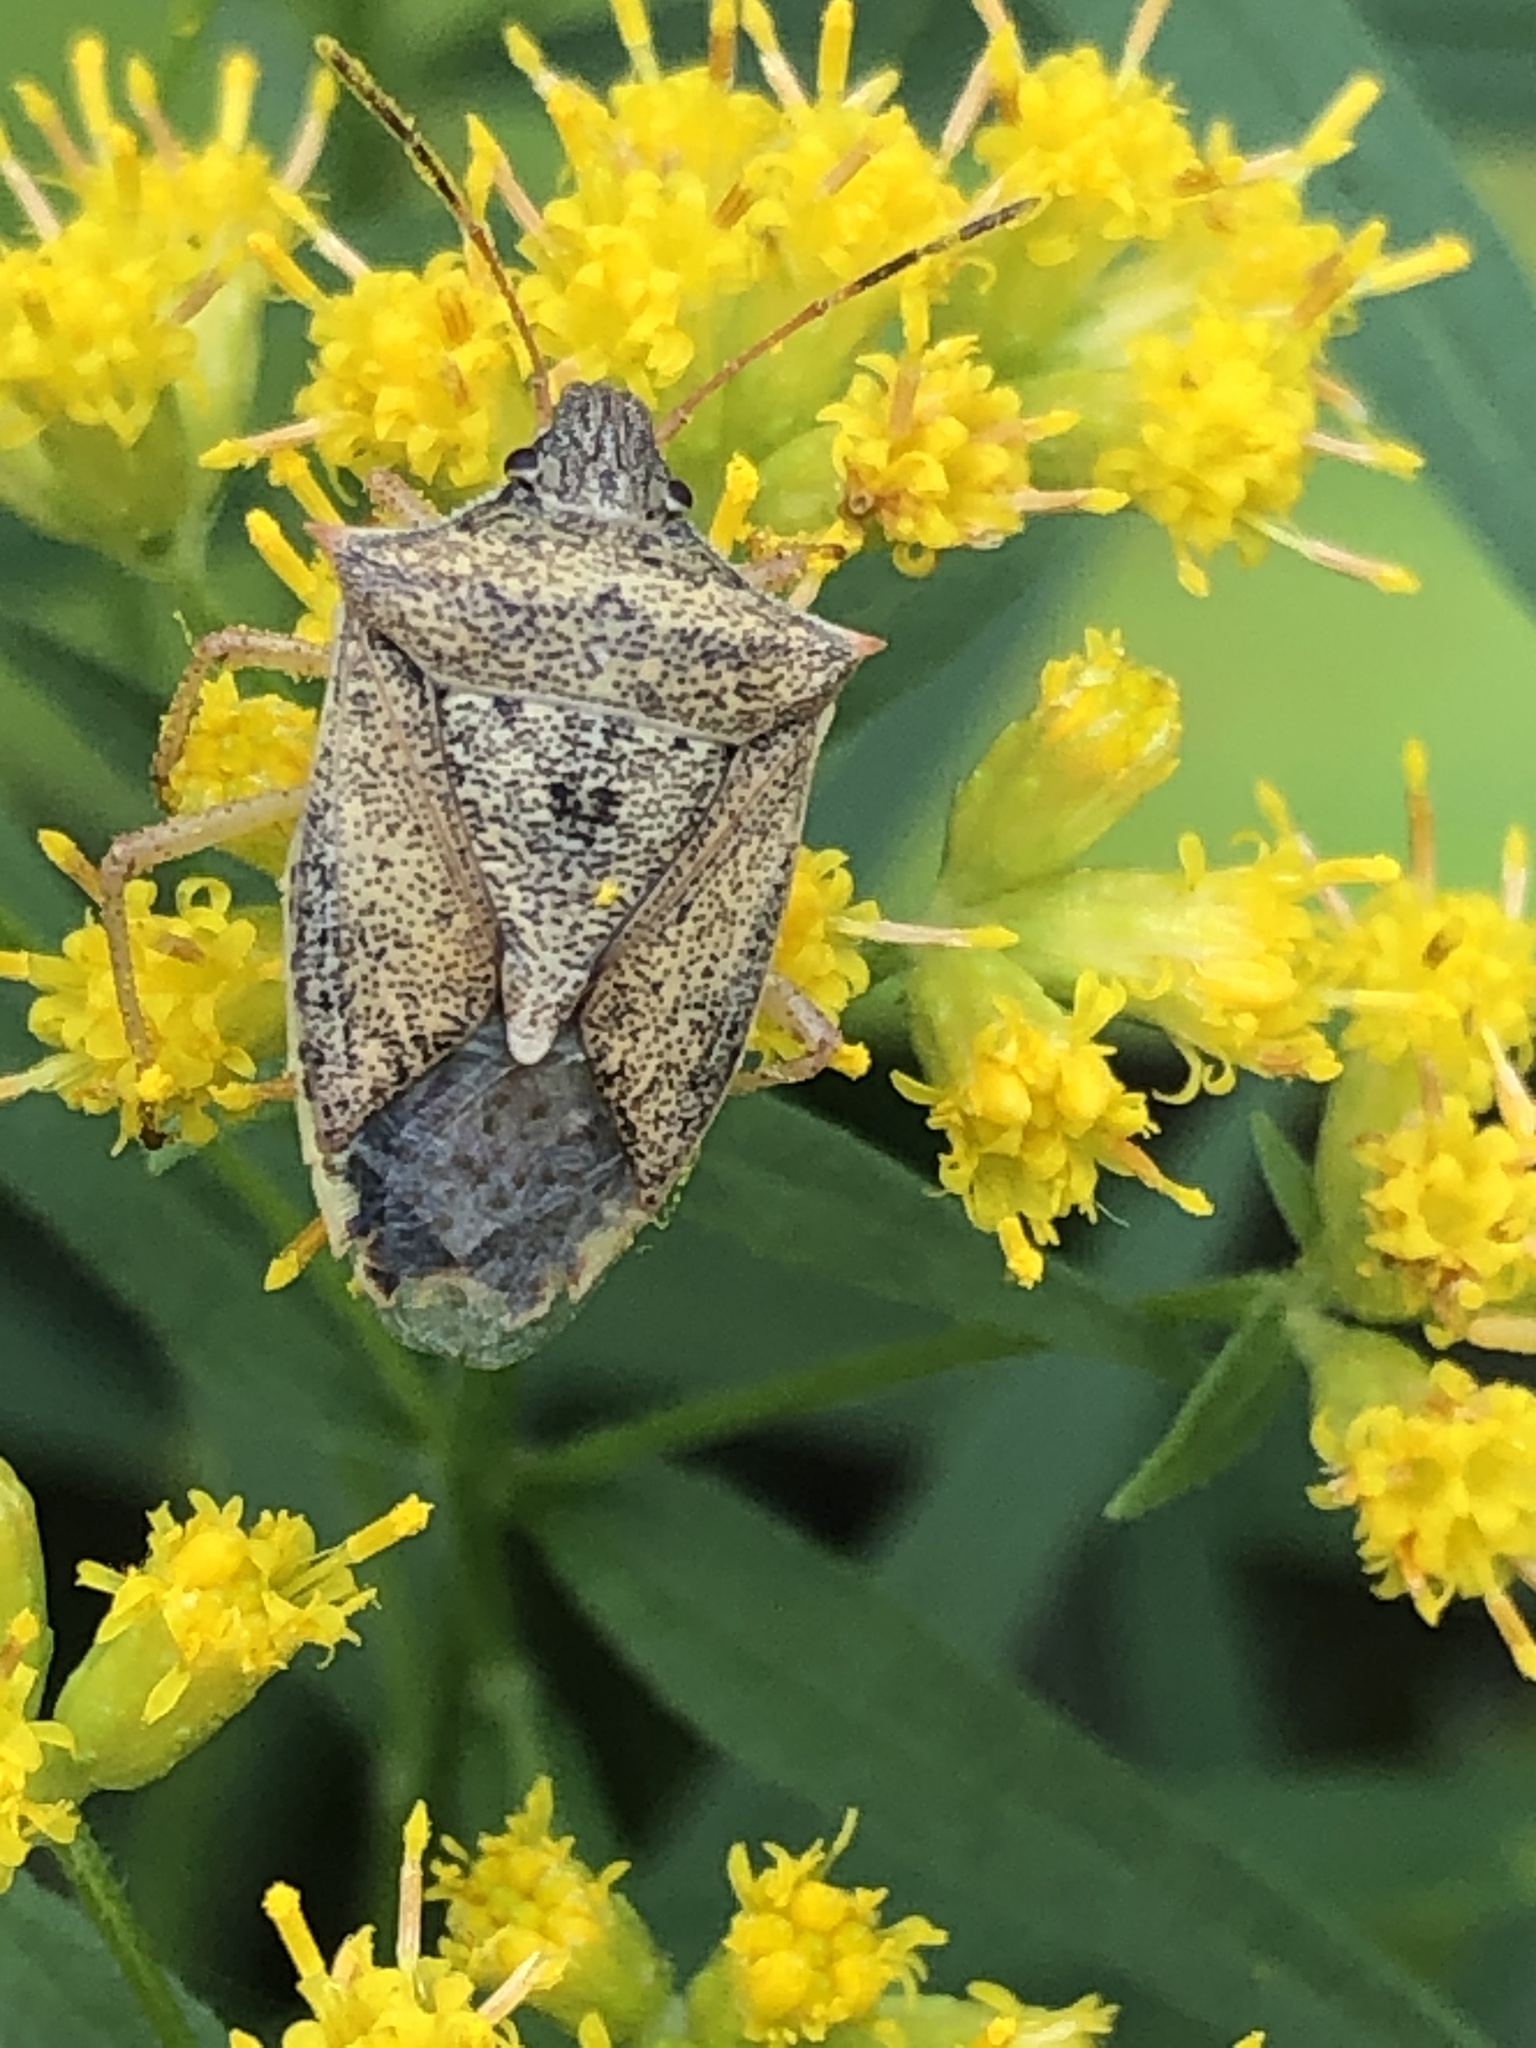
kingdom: Animalia
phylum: Arthropoda
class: Insecta
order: Hemiptera
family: Pentatomidae
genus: Euschistus
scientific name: Euschistus variolarius
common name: Onespotted stink bug
